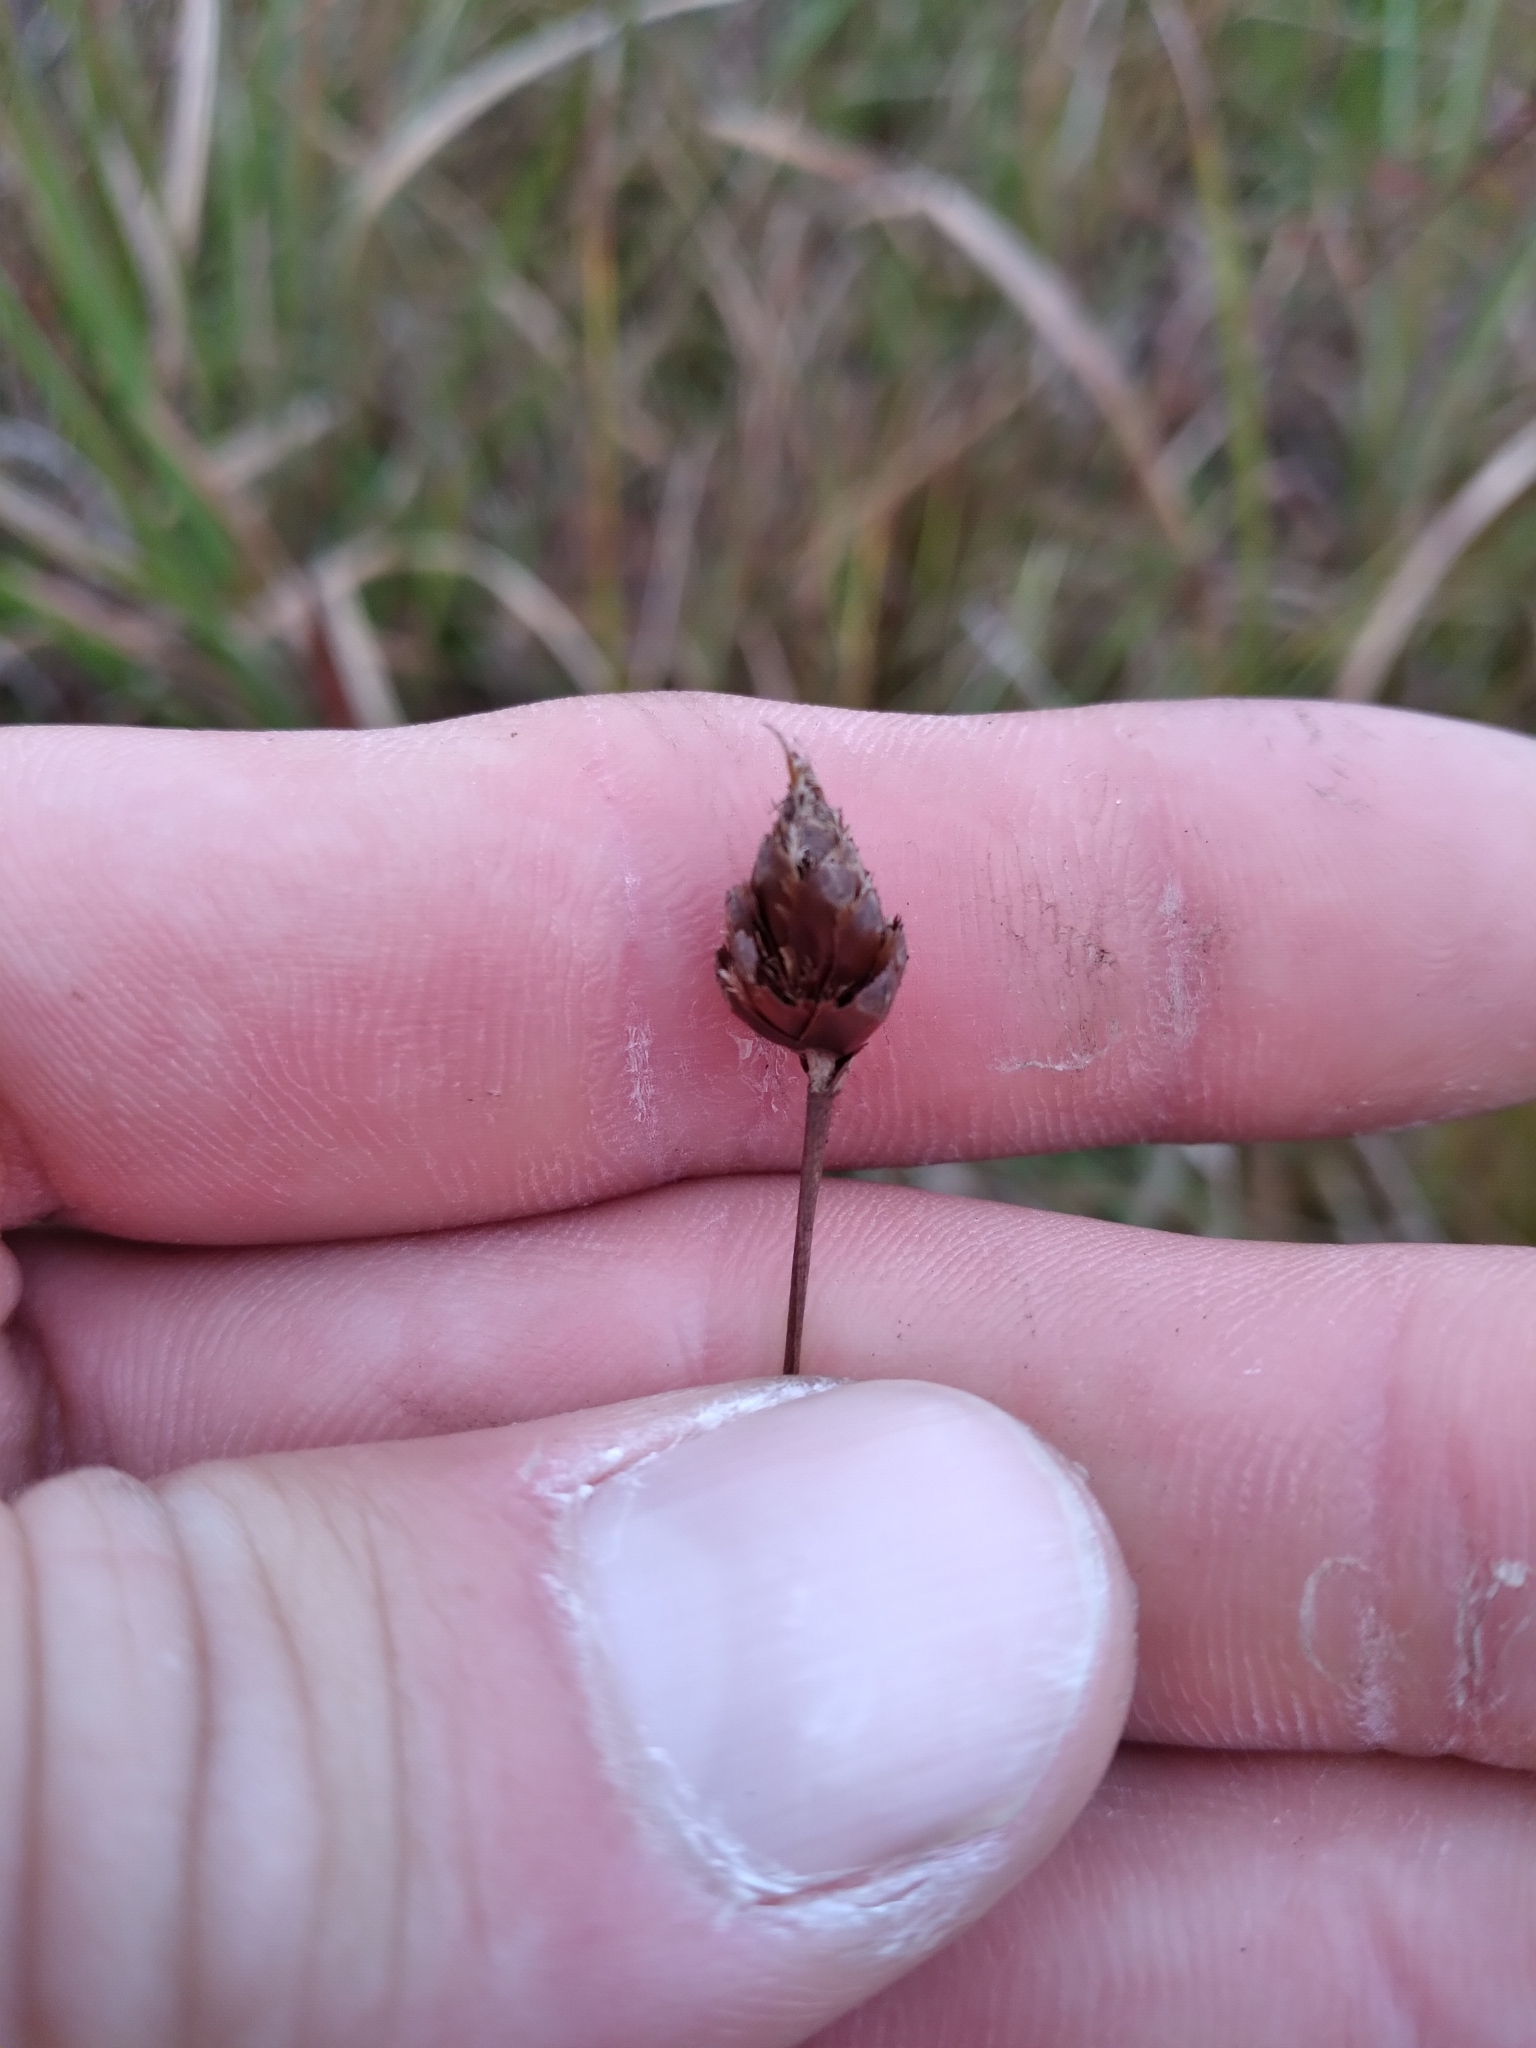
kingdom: Plantae
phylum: Tracheophyta
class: Liliopsida
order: Poales
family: Xyridaceae
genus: Xyris
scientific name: Xyris stenotera
